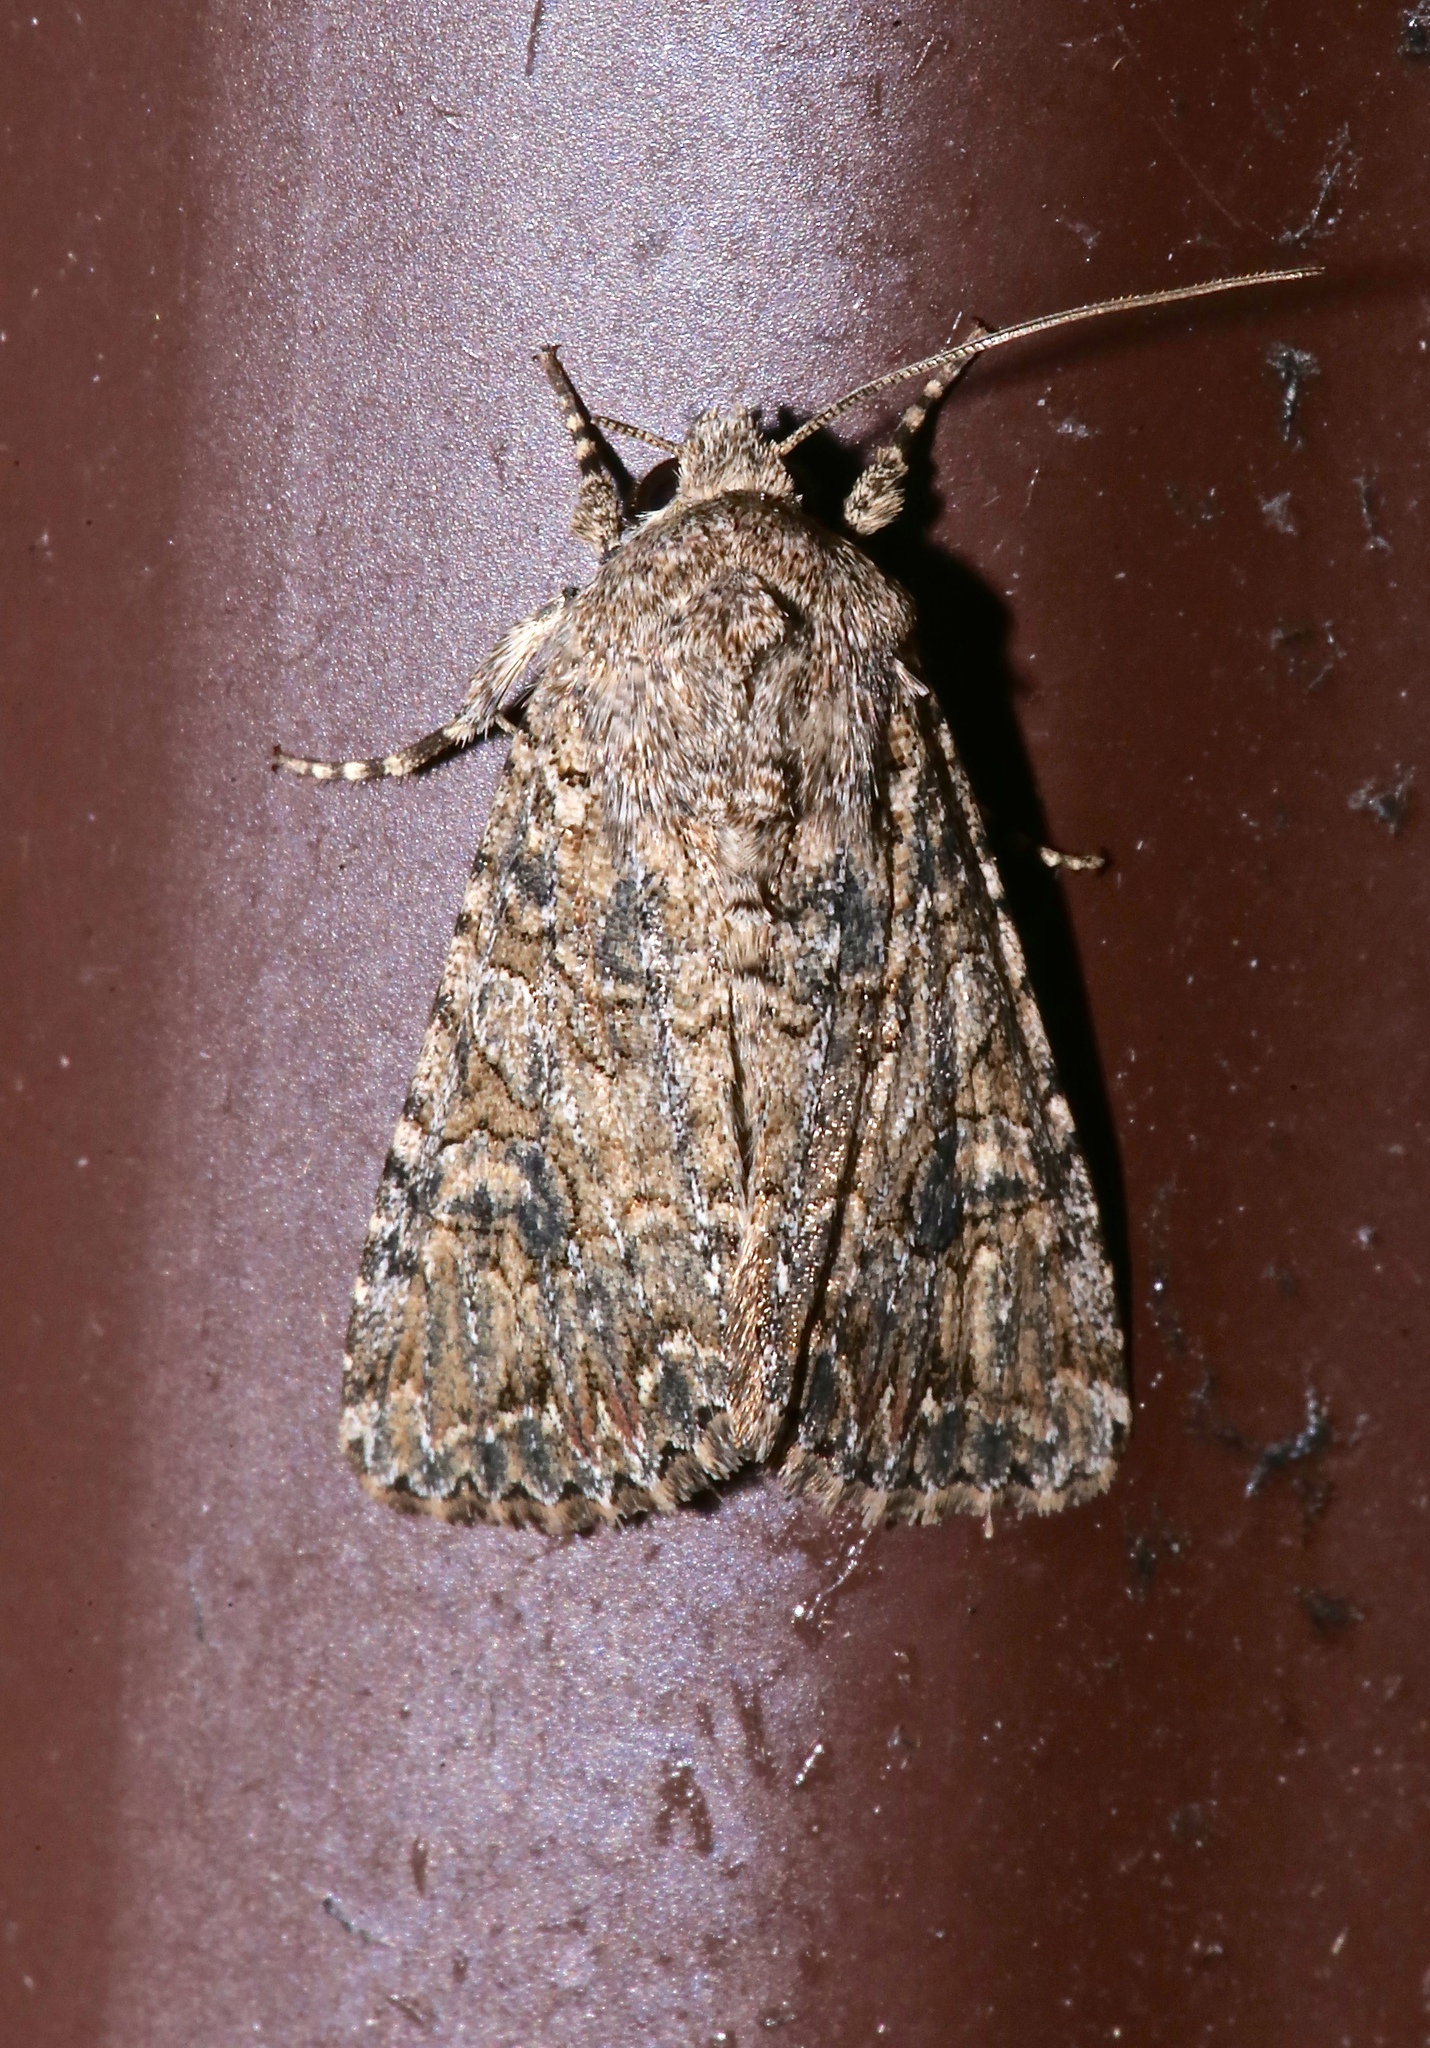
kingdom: Animalia
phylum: Arthropoda
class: Insecta
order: Lepidoptera
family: Noctuidae
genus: Anarta
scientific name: Anarta trifolii
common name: Clover cutworm moth
